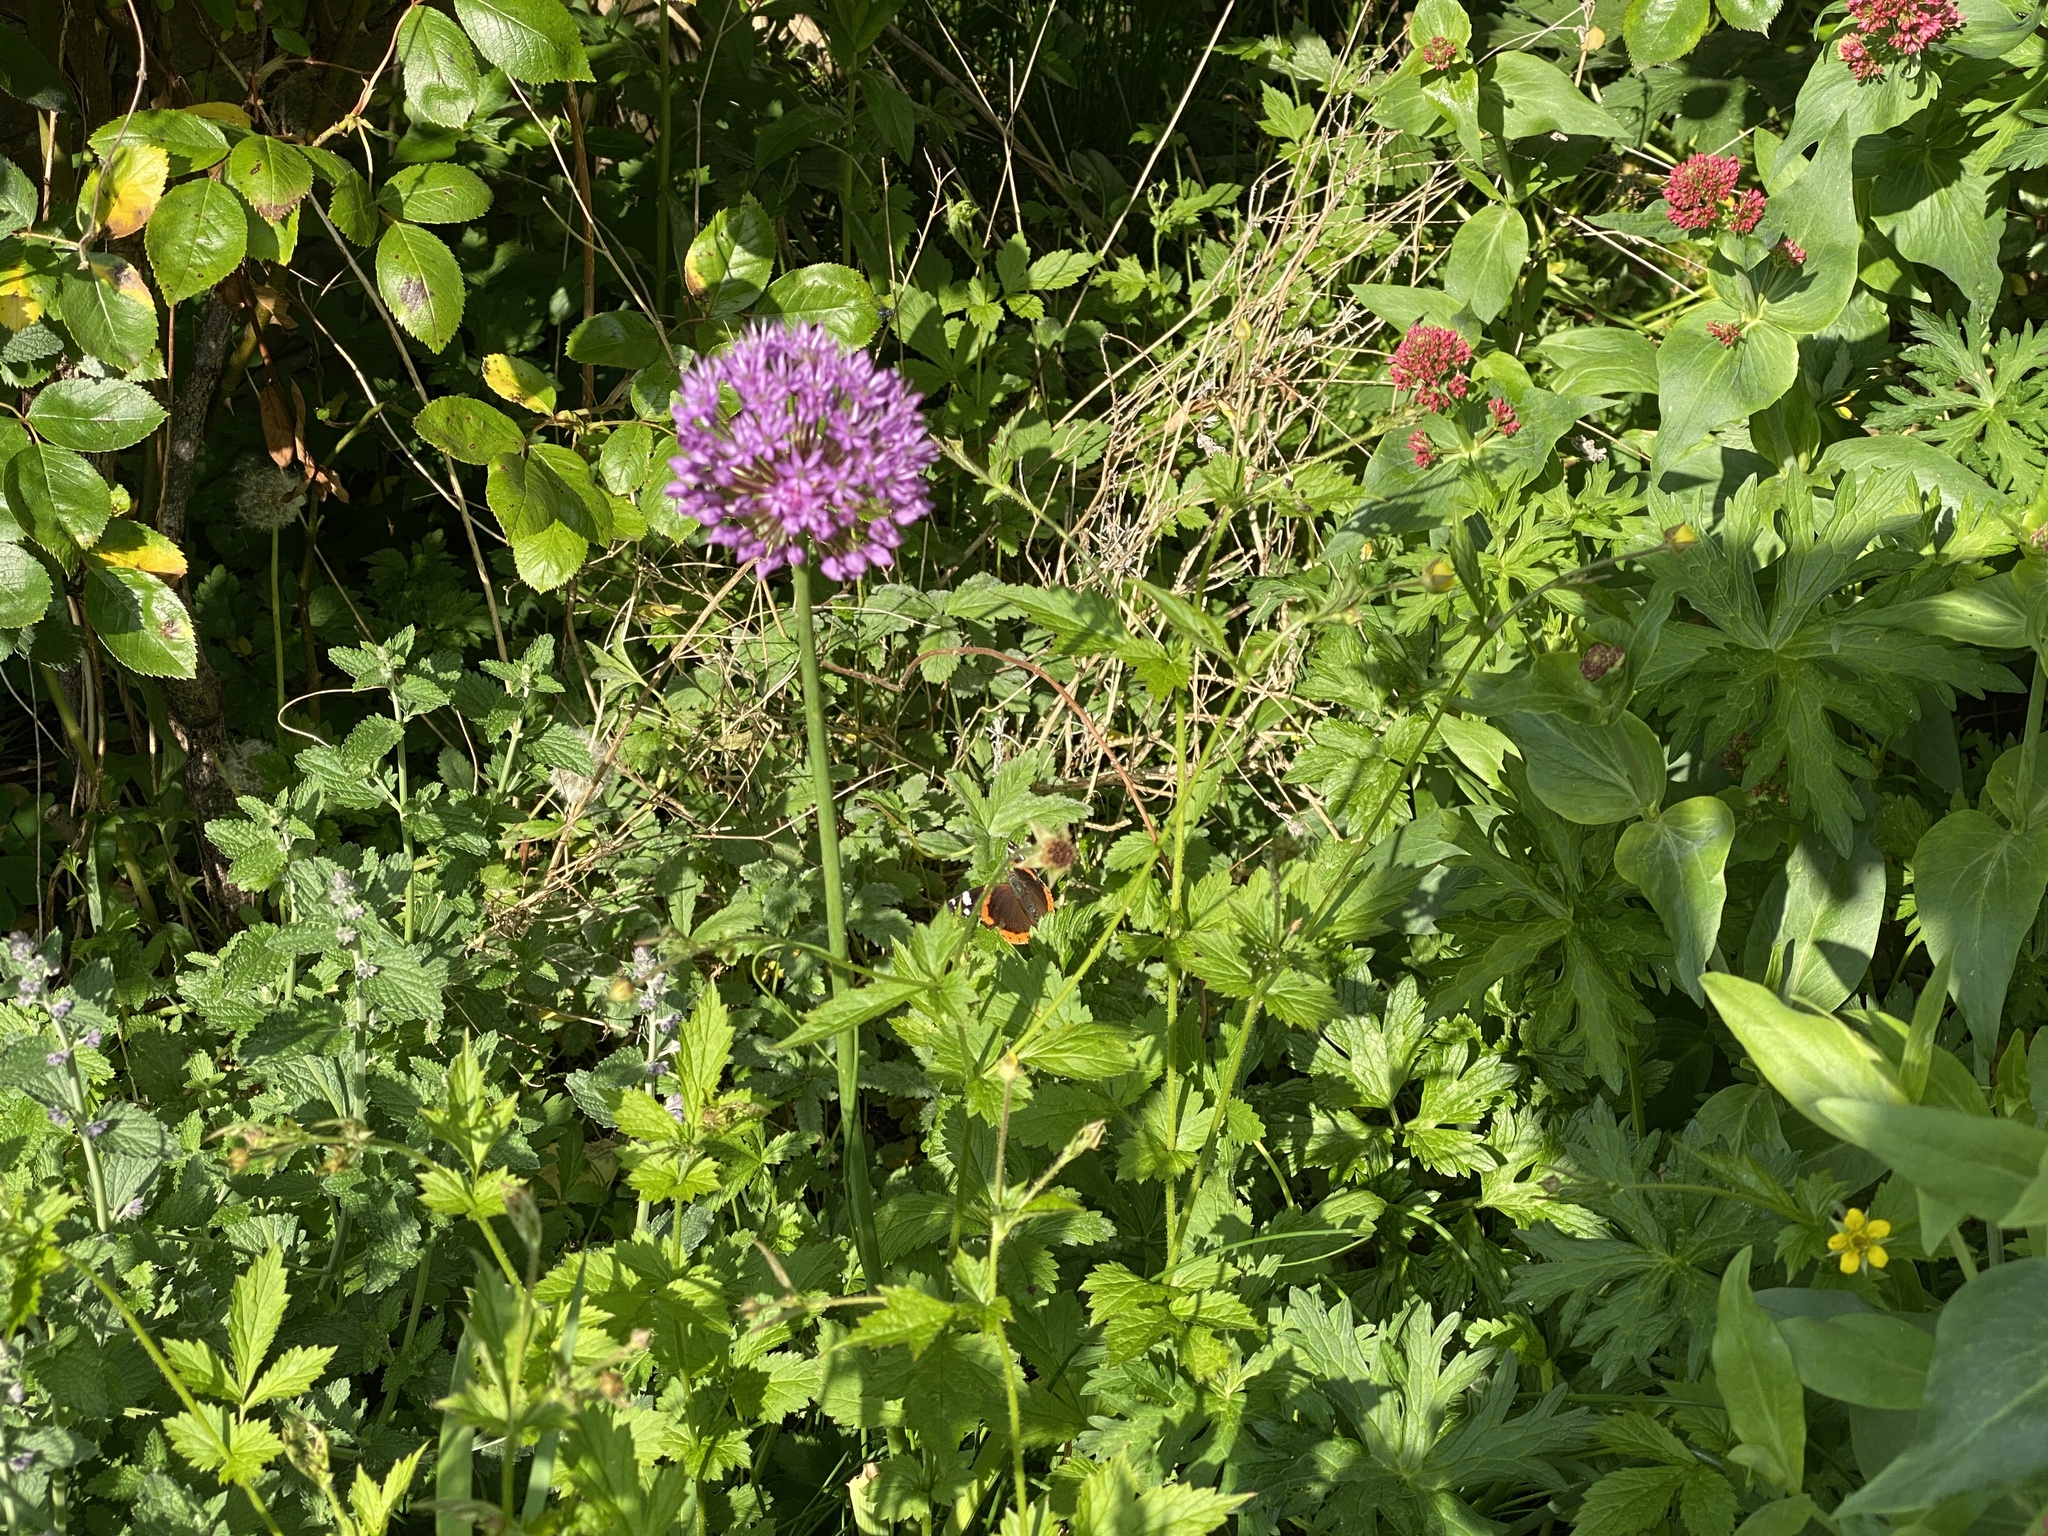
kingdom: Animalia
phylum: Arthropoda
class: Insecta
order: Lepidoptera
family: Nymphalidae
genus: Vanessa
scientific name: Vanessa atalanta
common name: Red admiral
